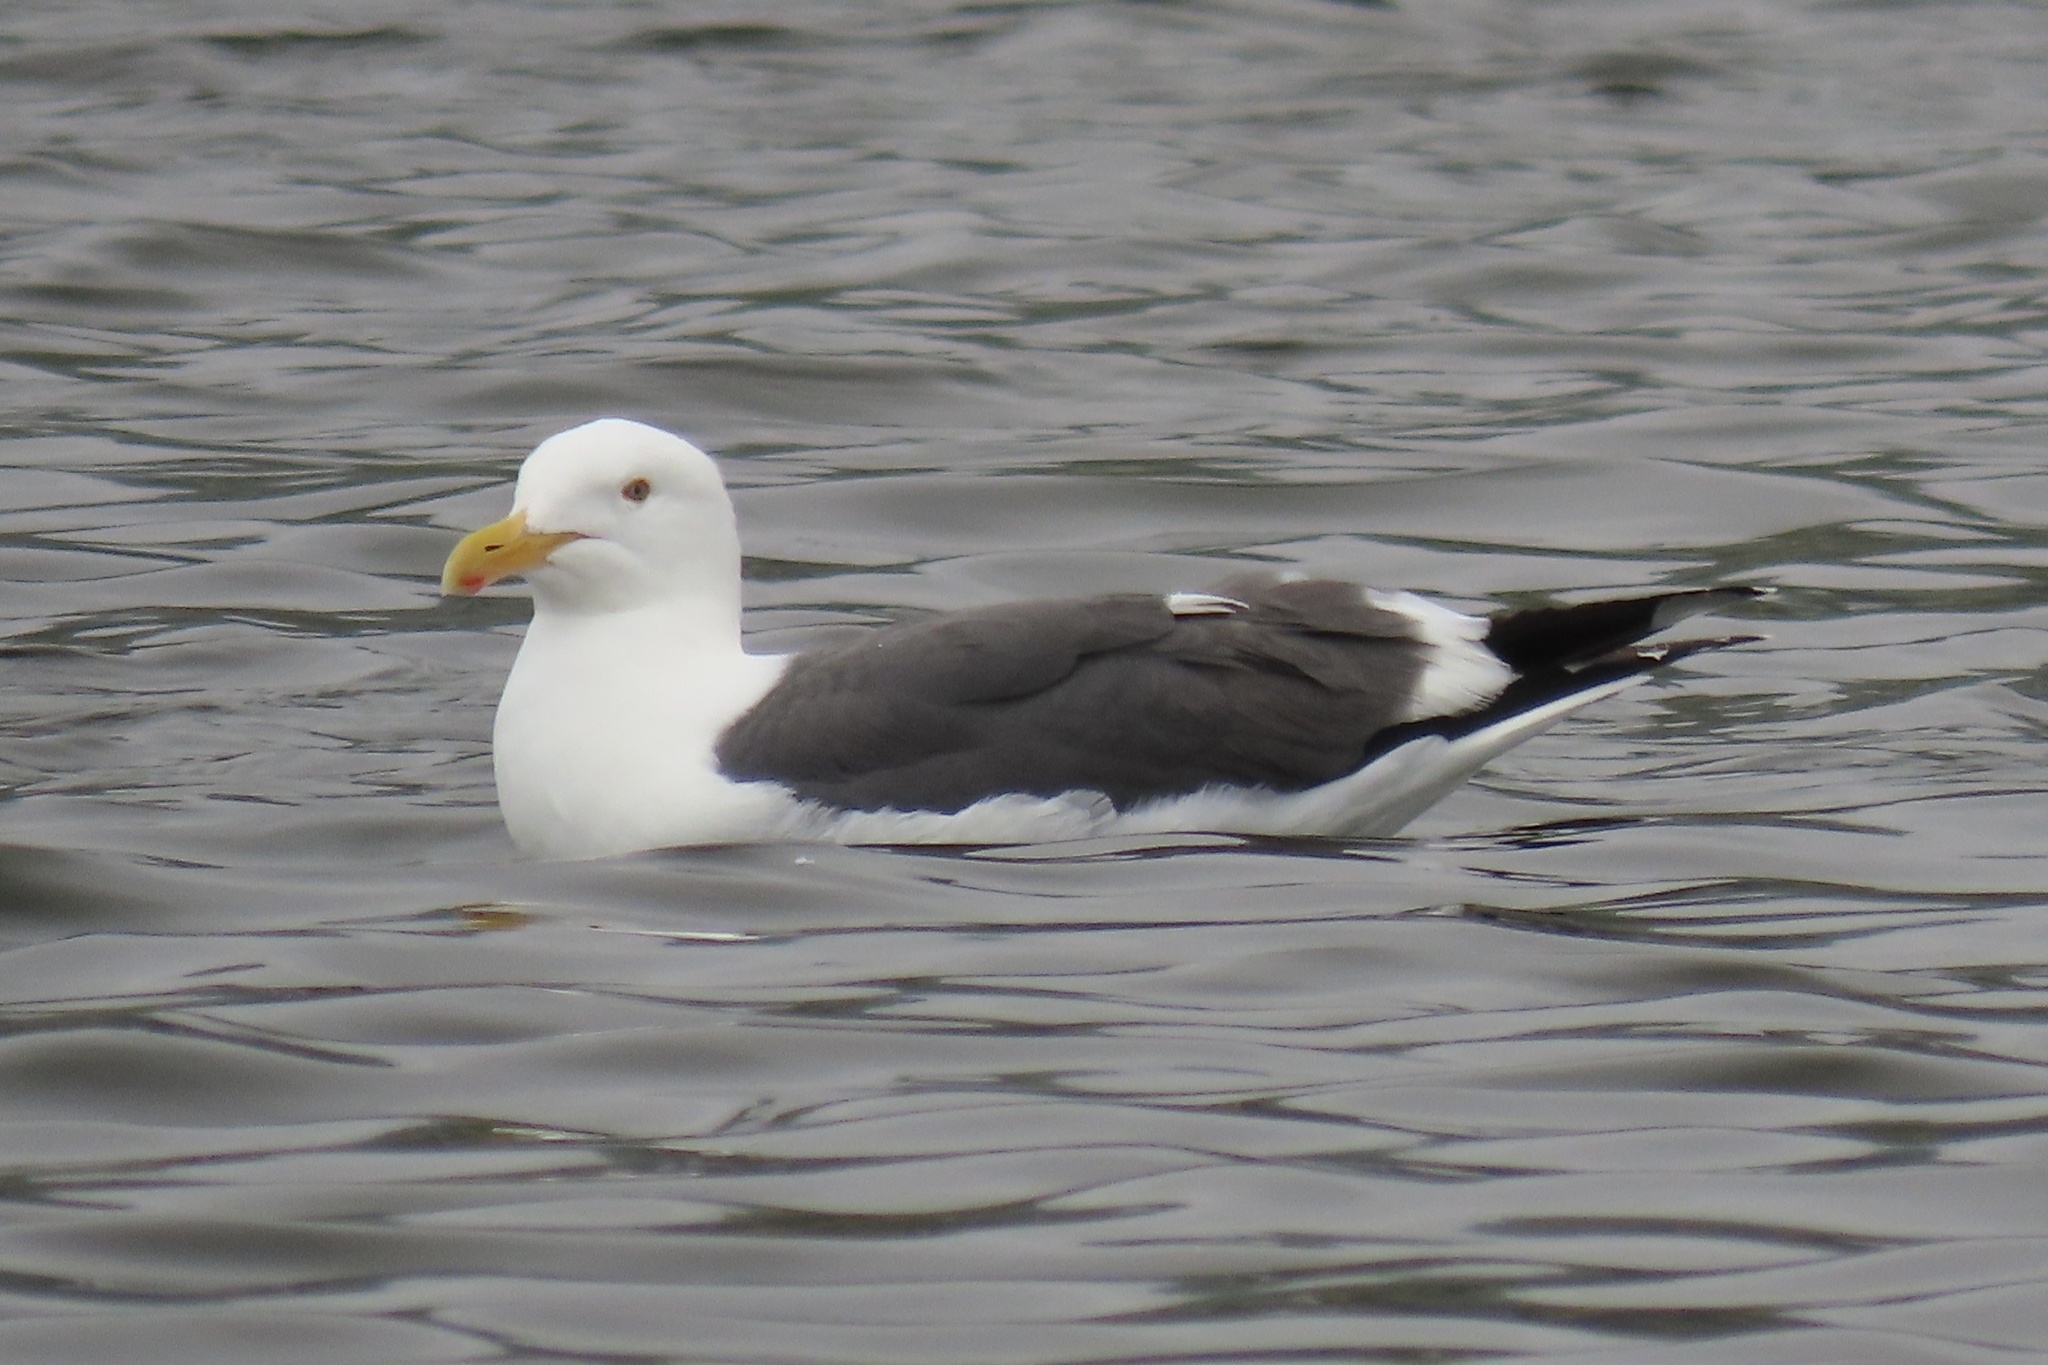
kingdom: Animalia
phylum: Chordata
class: Aves
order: Charadriiformes
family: Laridae
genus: Larus
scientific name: Larus occidentalis
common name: Western gull
